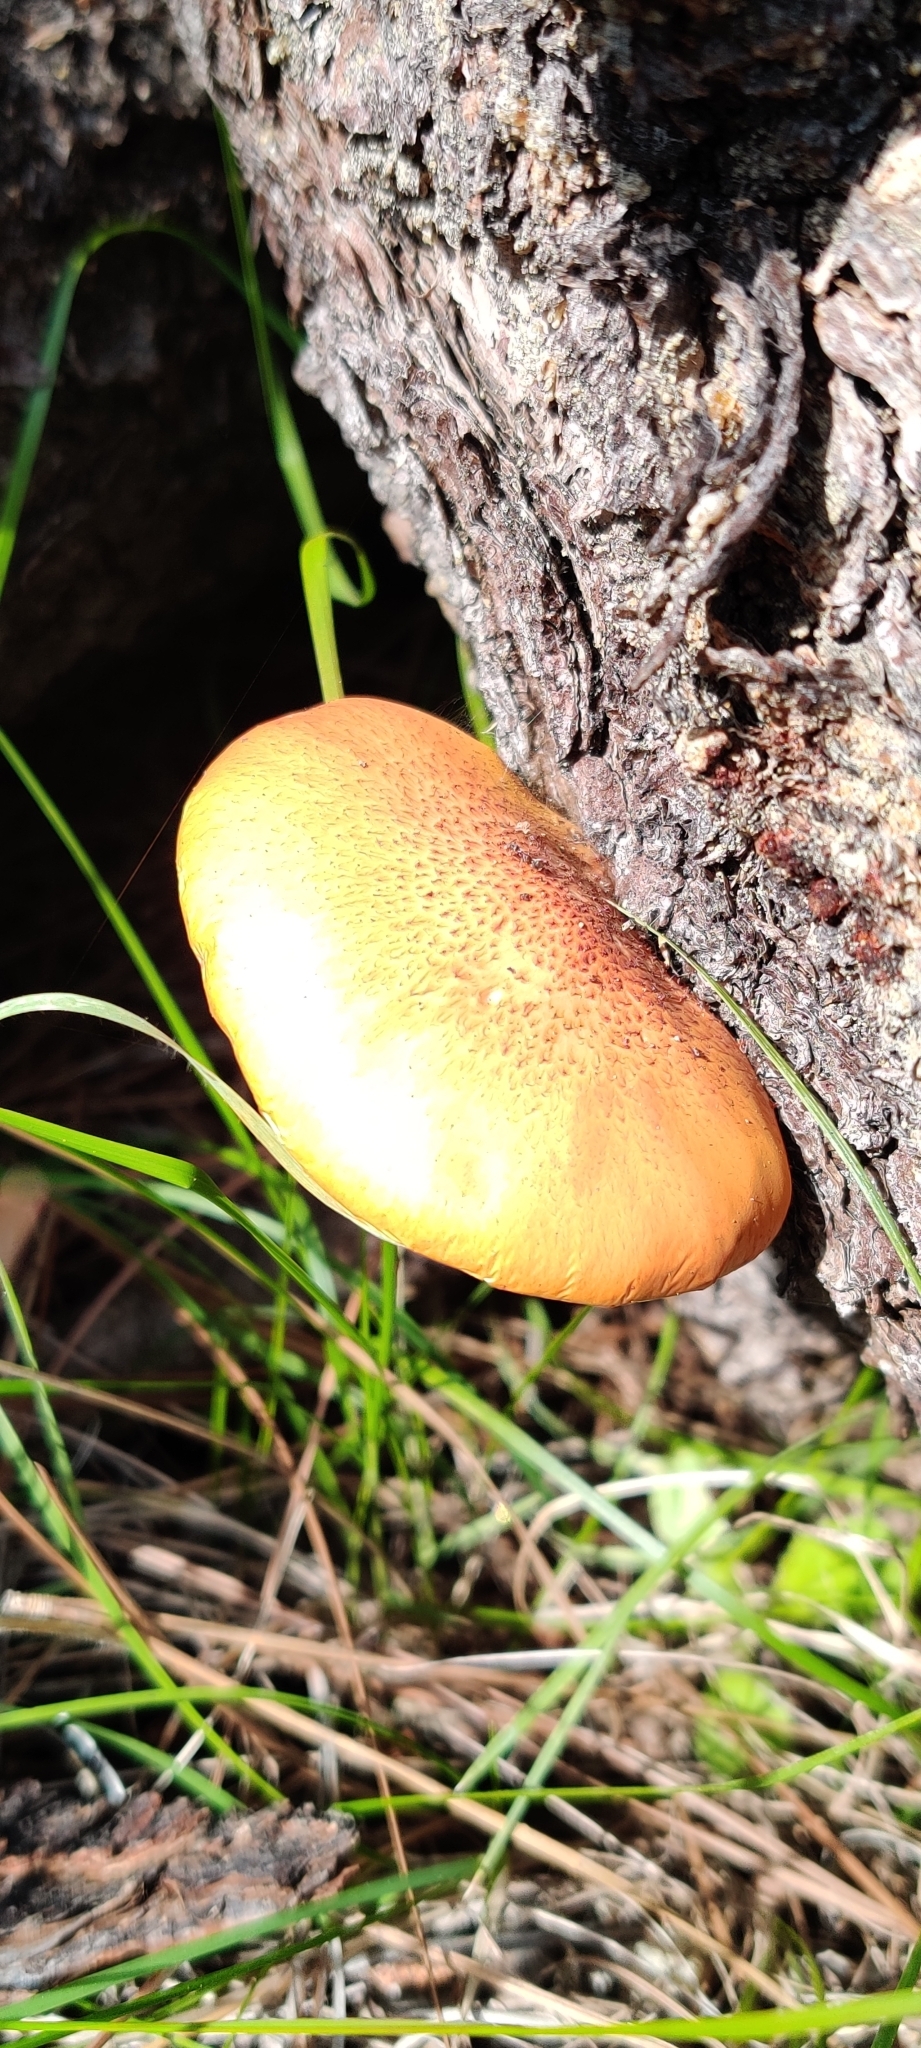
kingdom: Fungi
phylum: Basidiomycota
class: Agaricomycetes
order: Agaricales
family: Hymenogastraceae
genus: Gymnopilus
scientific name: Gymnopilus luteofolius
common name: Yellow-gilled gymnopilus
